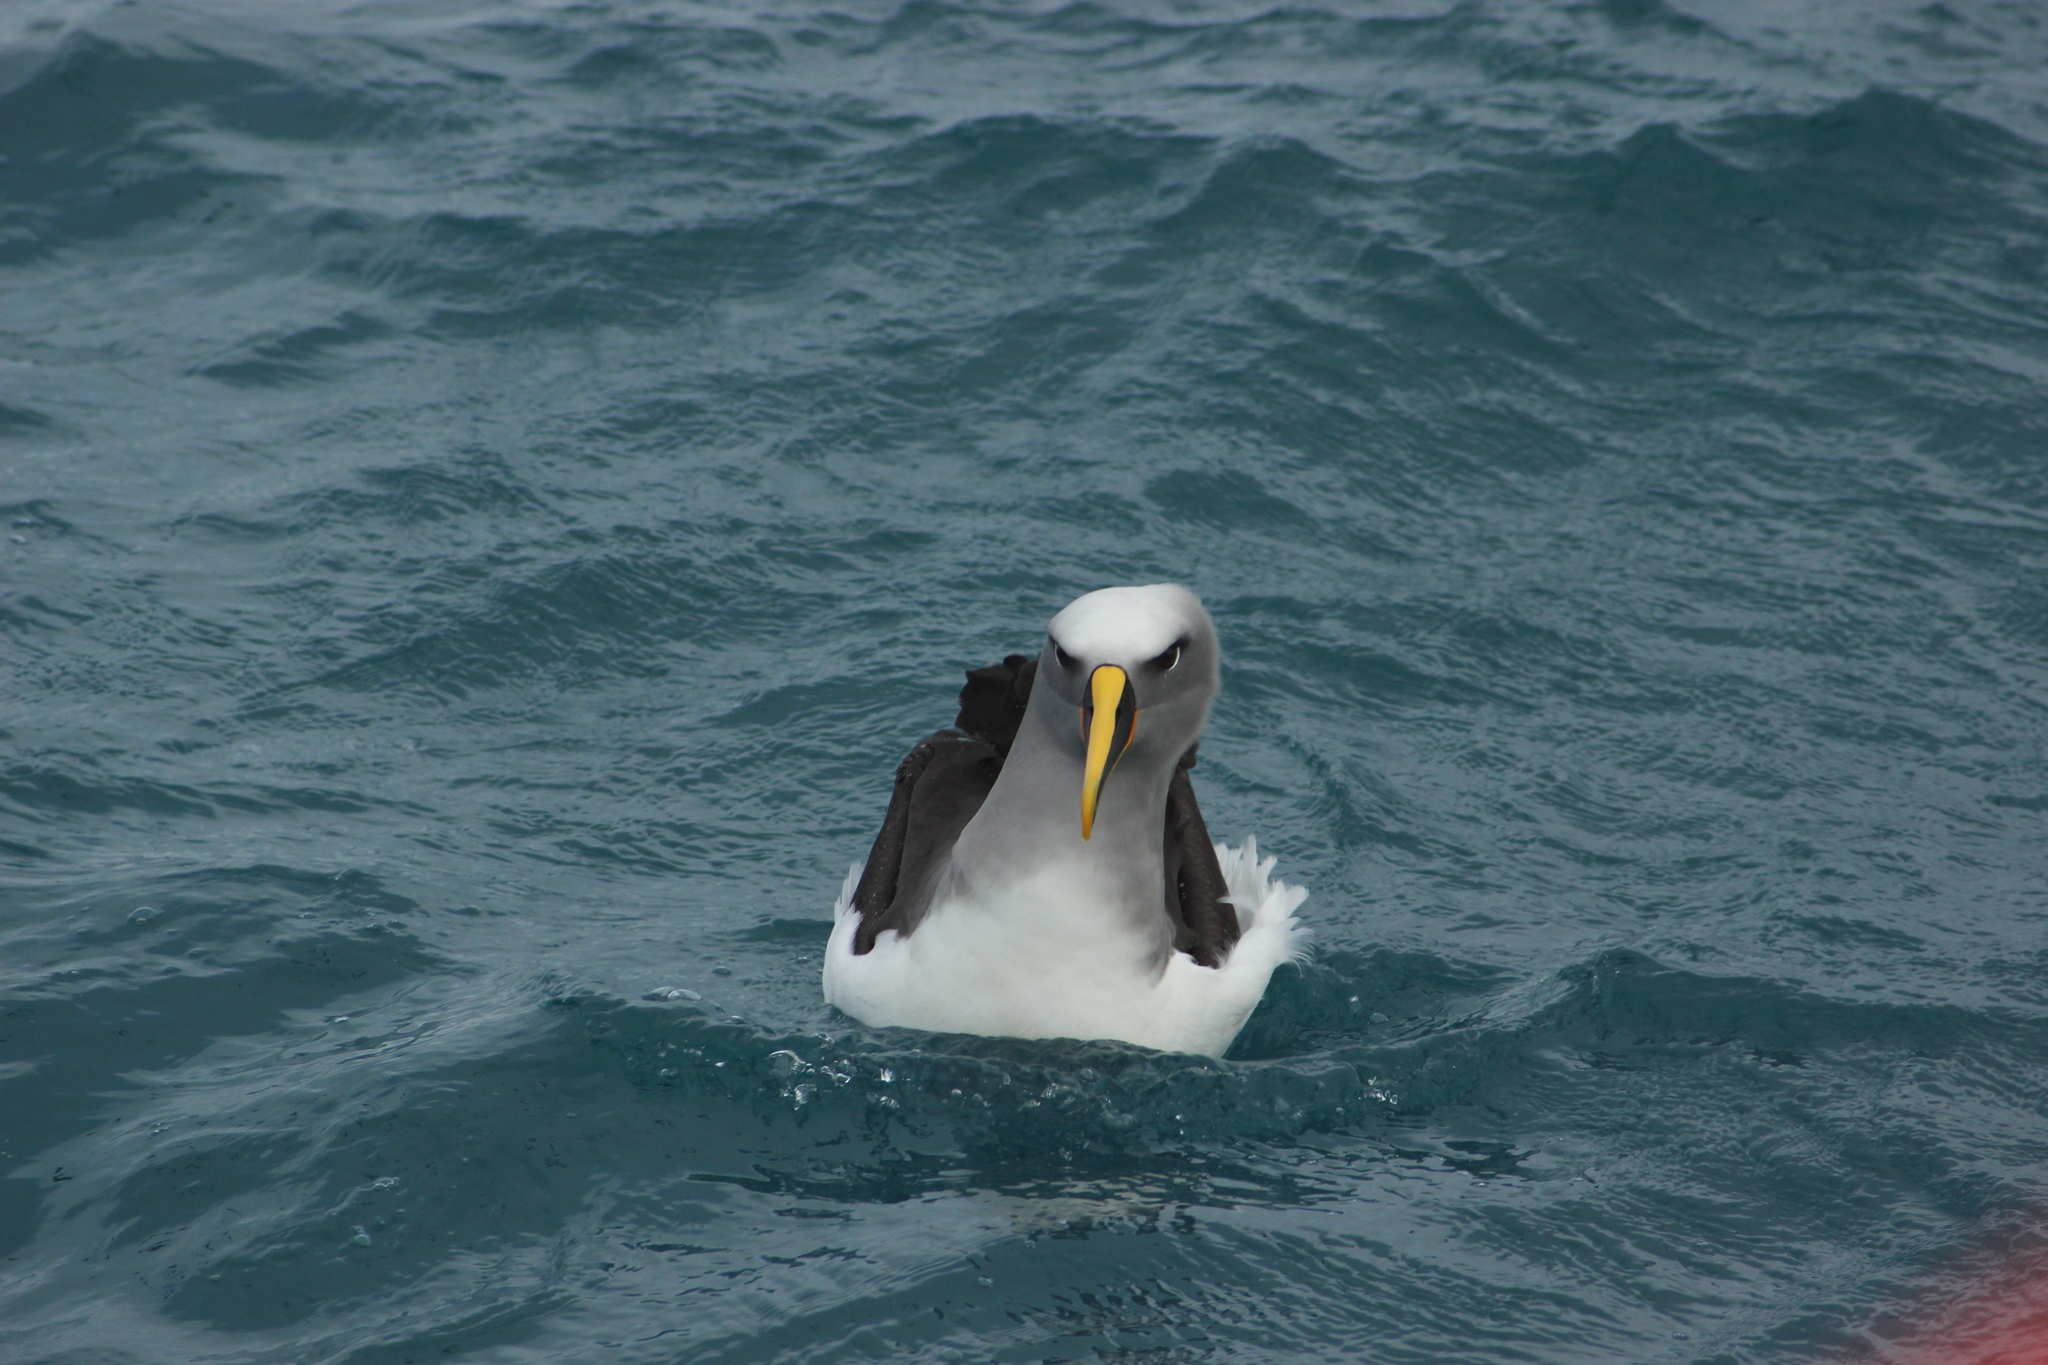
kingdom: Animalia
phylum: Chordata
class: Aves
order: Procellariiformes
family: Diomedeidae
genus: Thalassarche
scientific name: Thalassarche bulleri
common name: Buller's albatross
